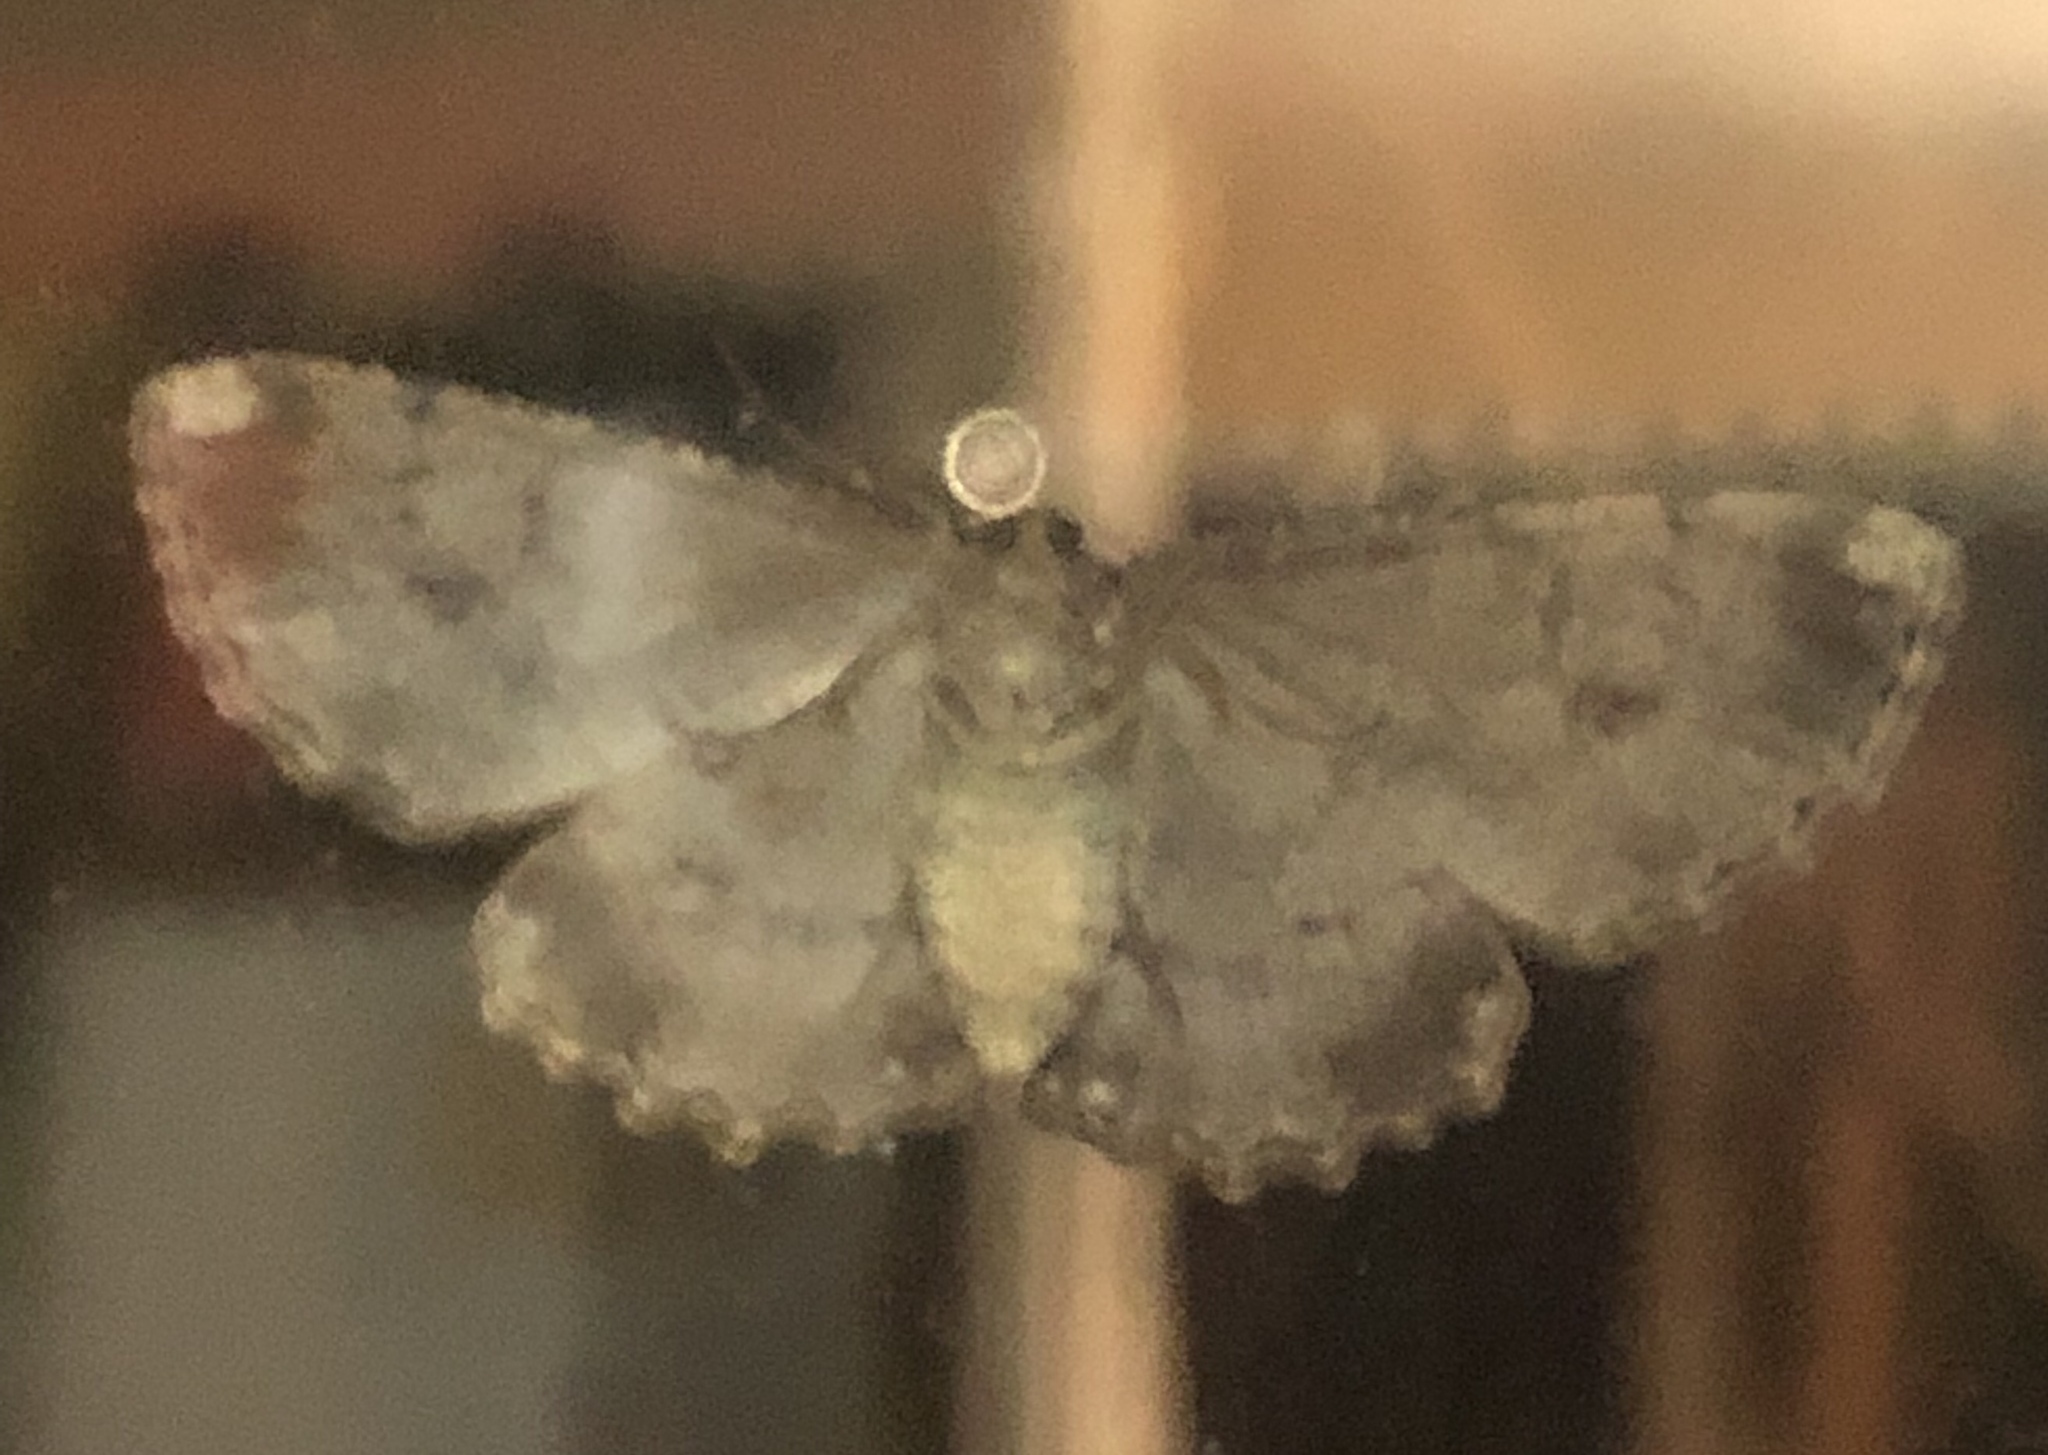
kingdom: Animalia
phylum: Arthropoda
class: Insecta
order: Lepidoptera
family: Geometridae
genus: Ectropis
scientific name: Ectropis excursaria
